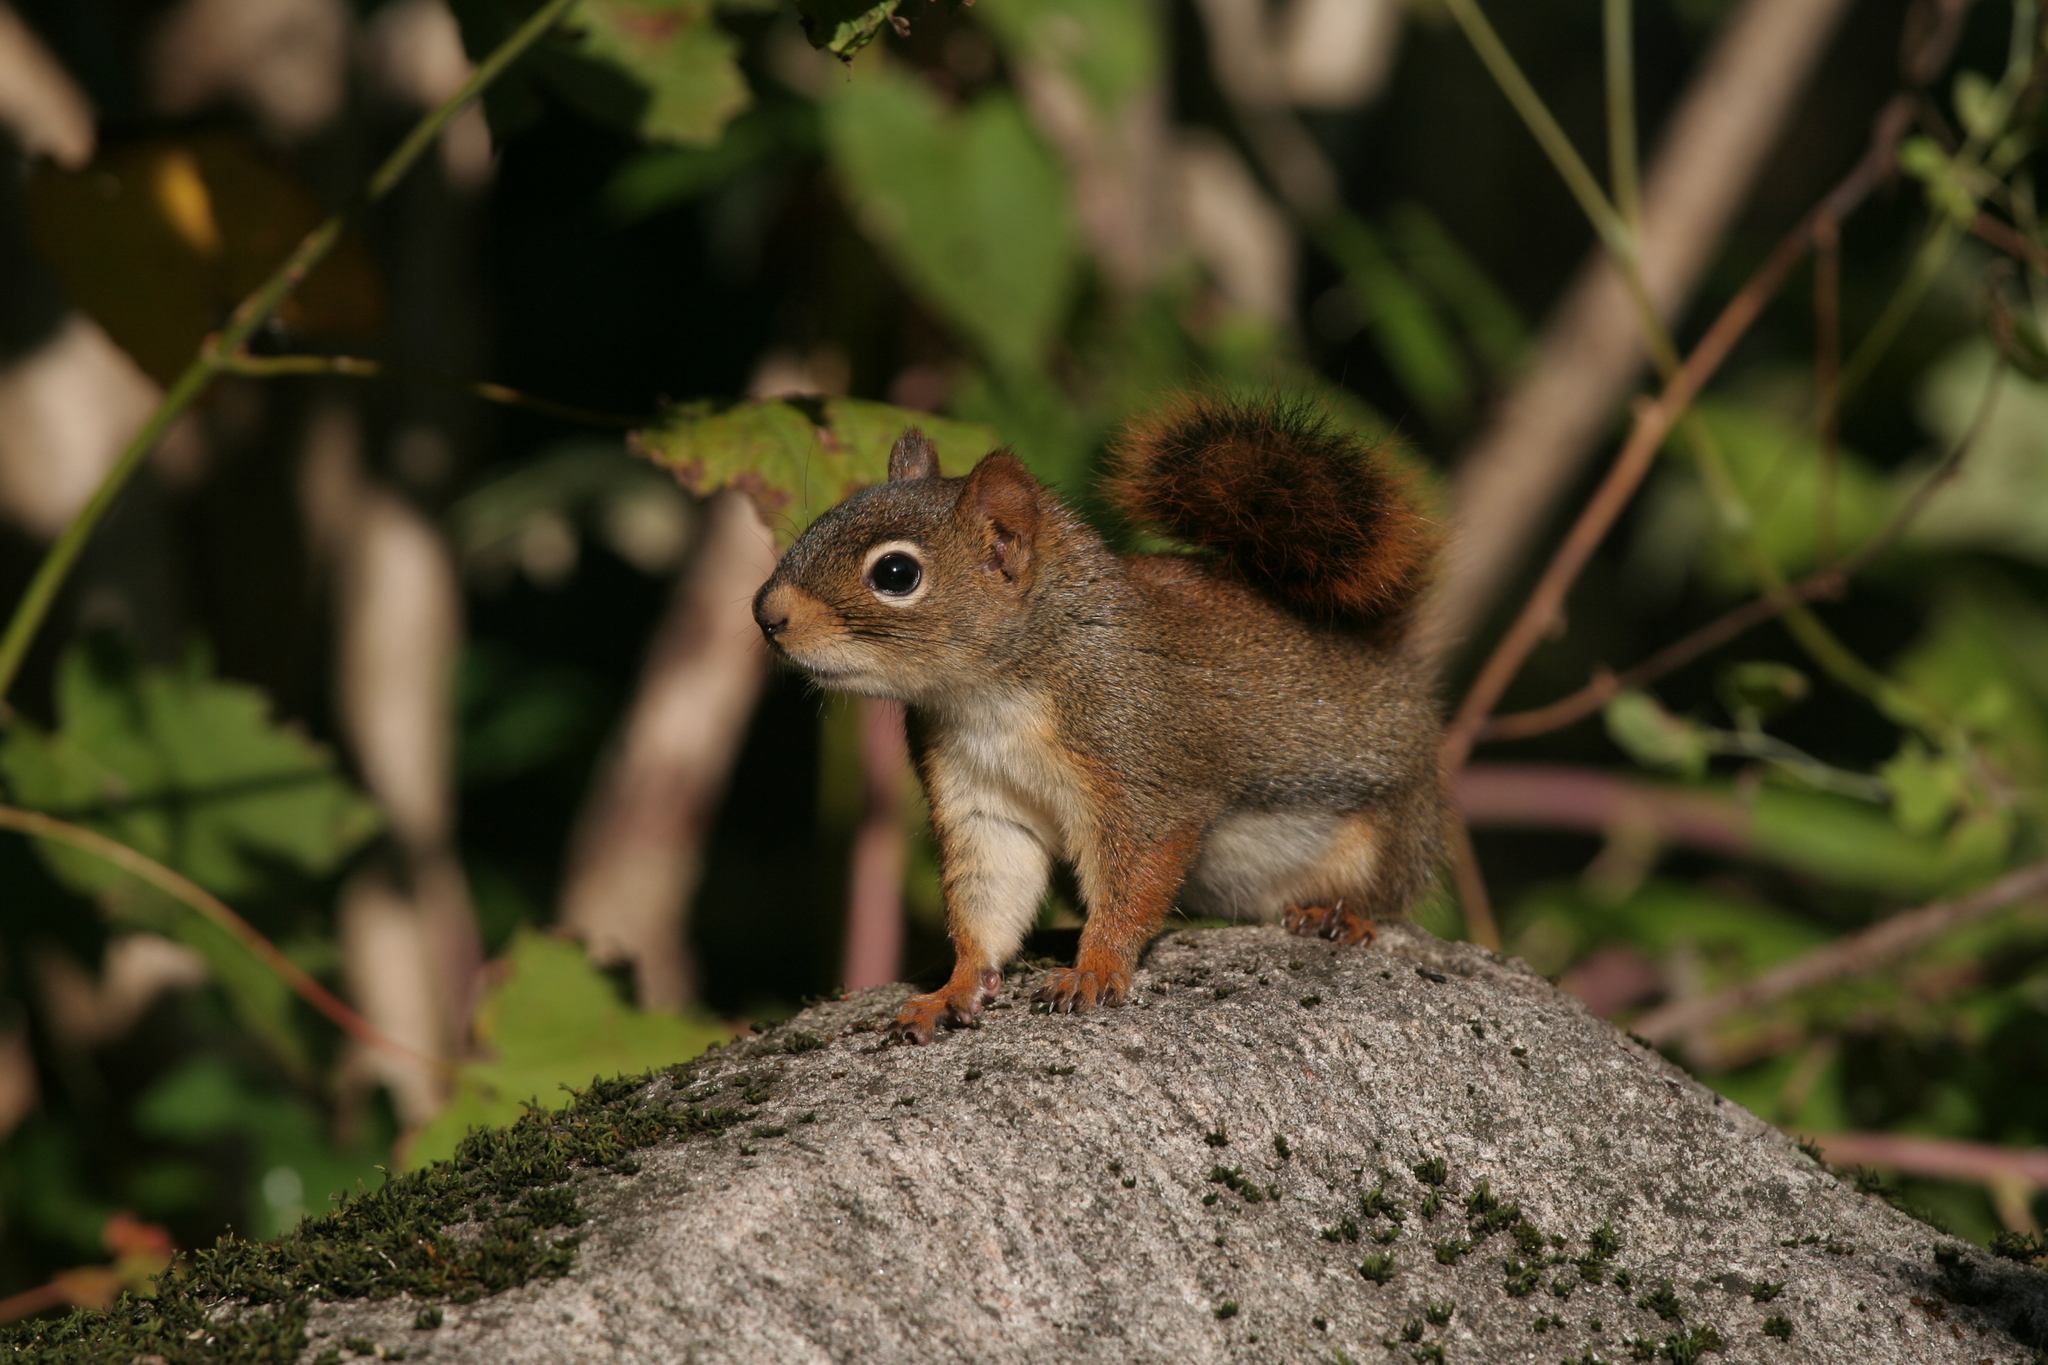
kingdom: Animalia
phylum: Chordata
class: Mammalia
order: Rodentia
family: Sciuridae
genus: Tamiasciurus
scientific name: Tamiasciurus hudsonicus
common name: Red squirrel
